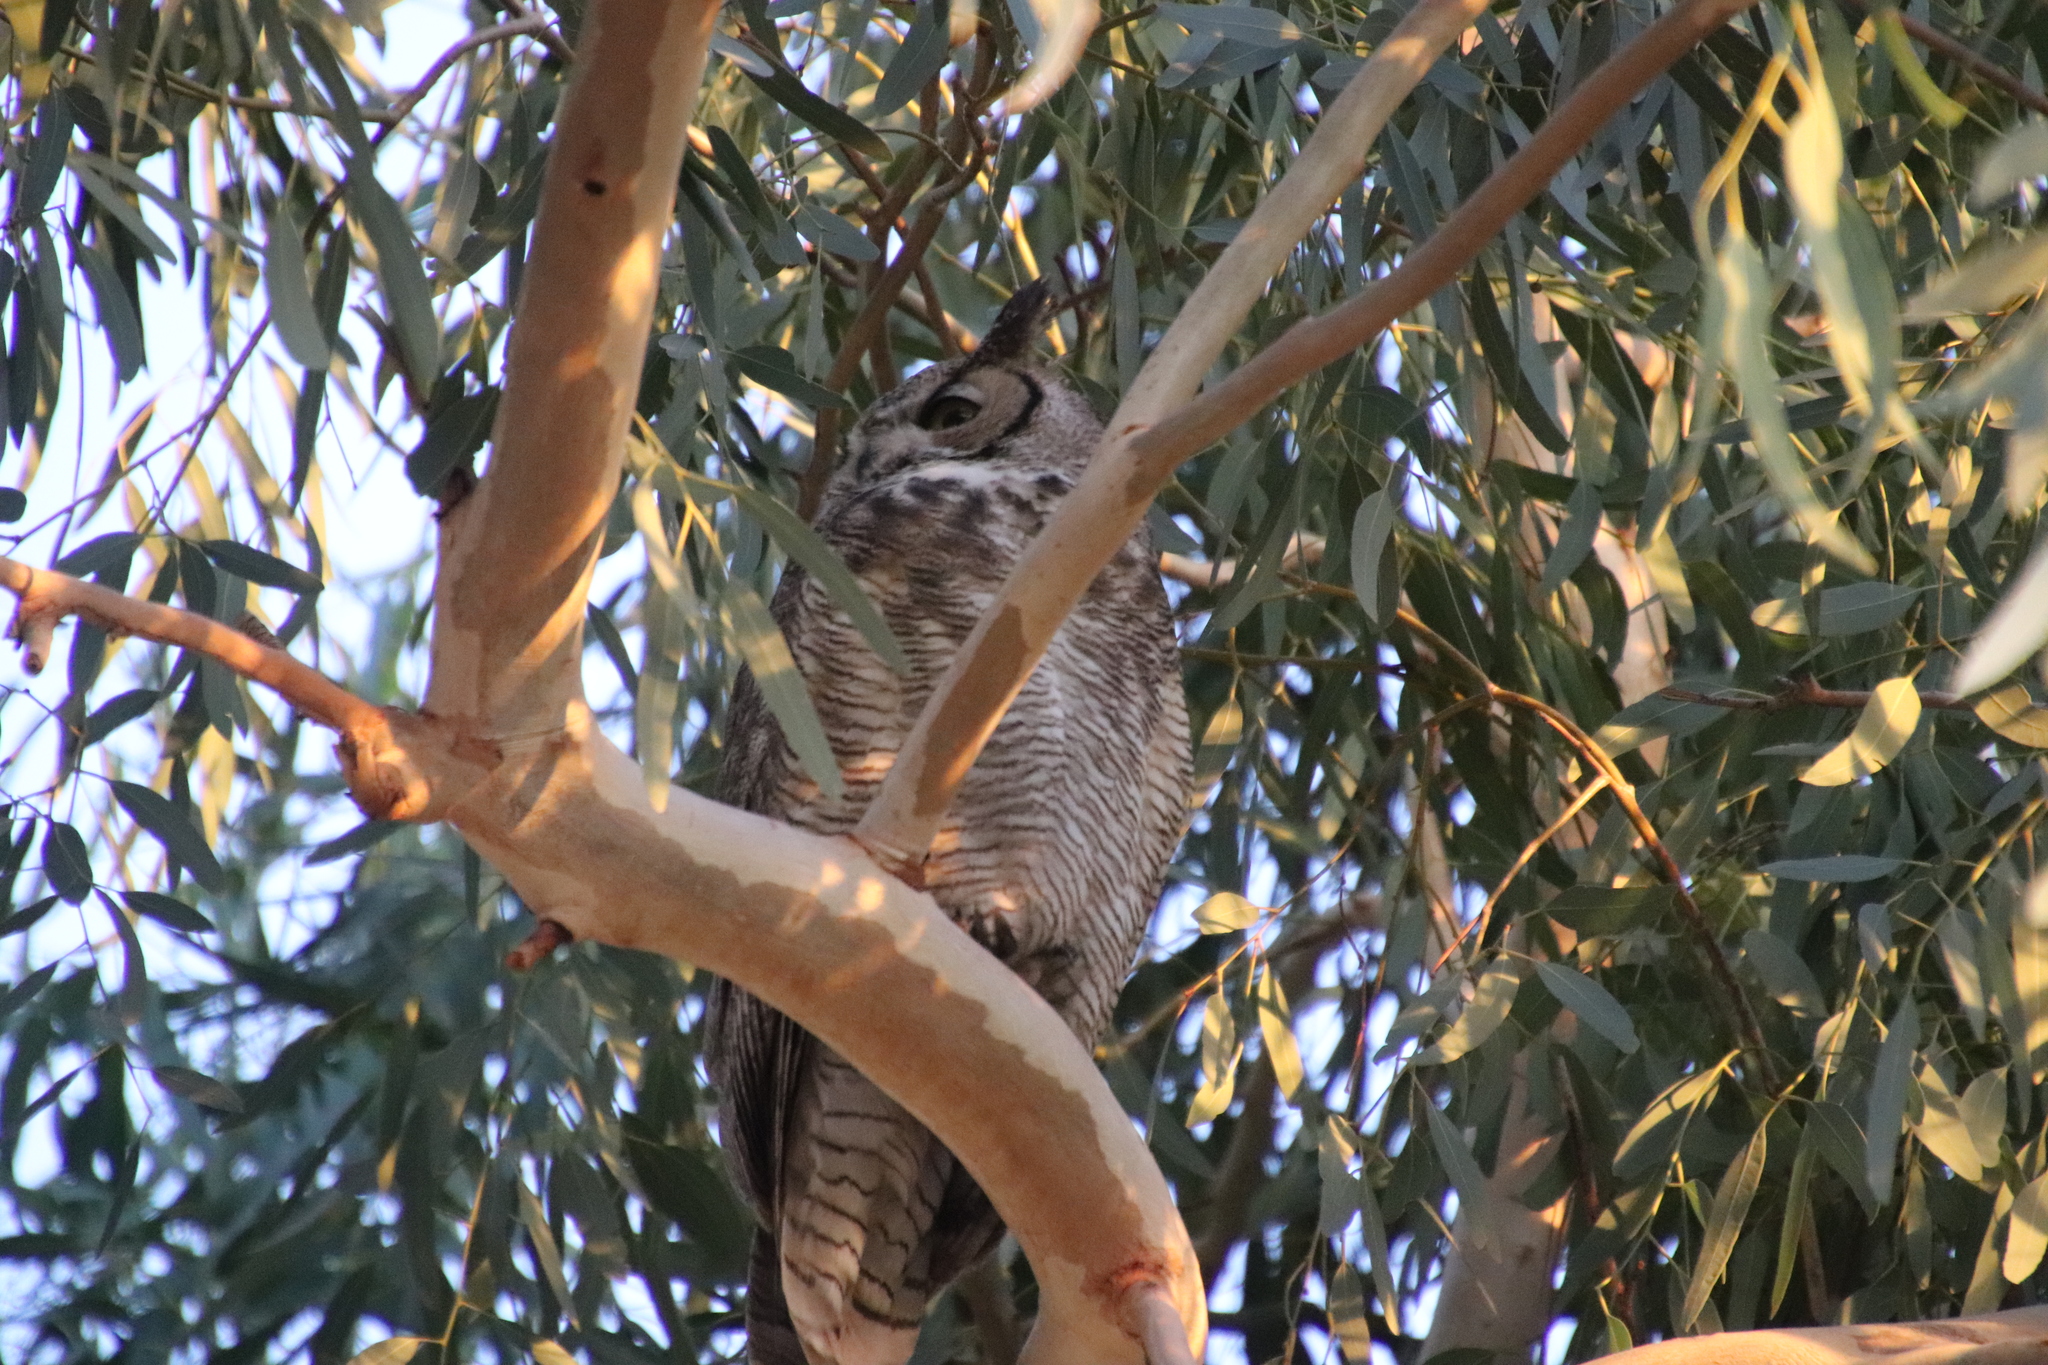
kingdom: Animalia
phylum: Chordata
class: Aves
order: Strigiformes
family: Strigidae
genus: Bubo
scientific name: Bubo virginianus
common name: Great horned owl
